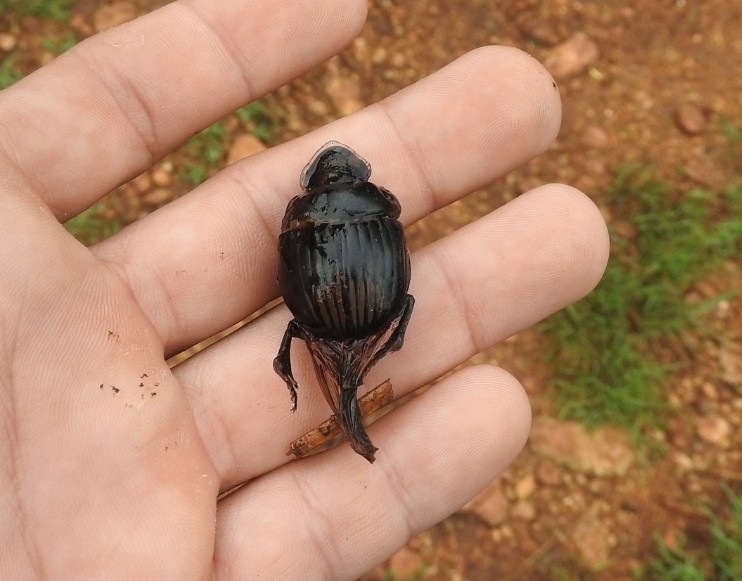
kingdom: Animalia
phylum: Arthropoda
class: Insecta
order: Coleoptera
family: Scarabaeidae
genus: Dichotomius
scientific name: Dichotomius maya
